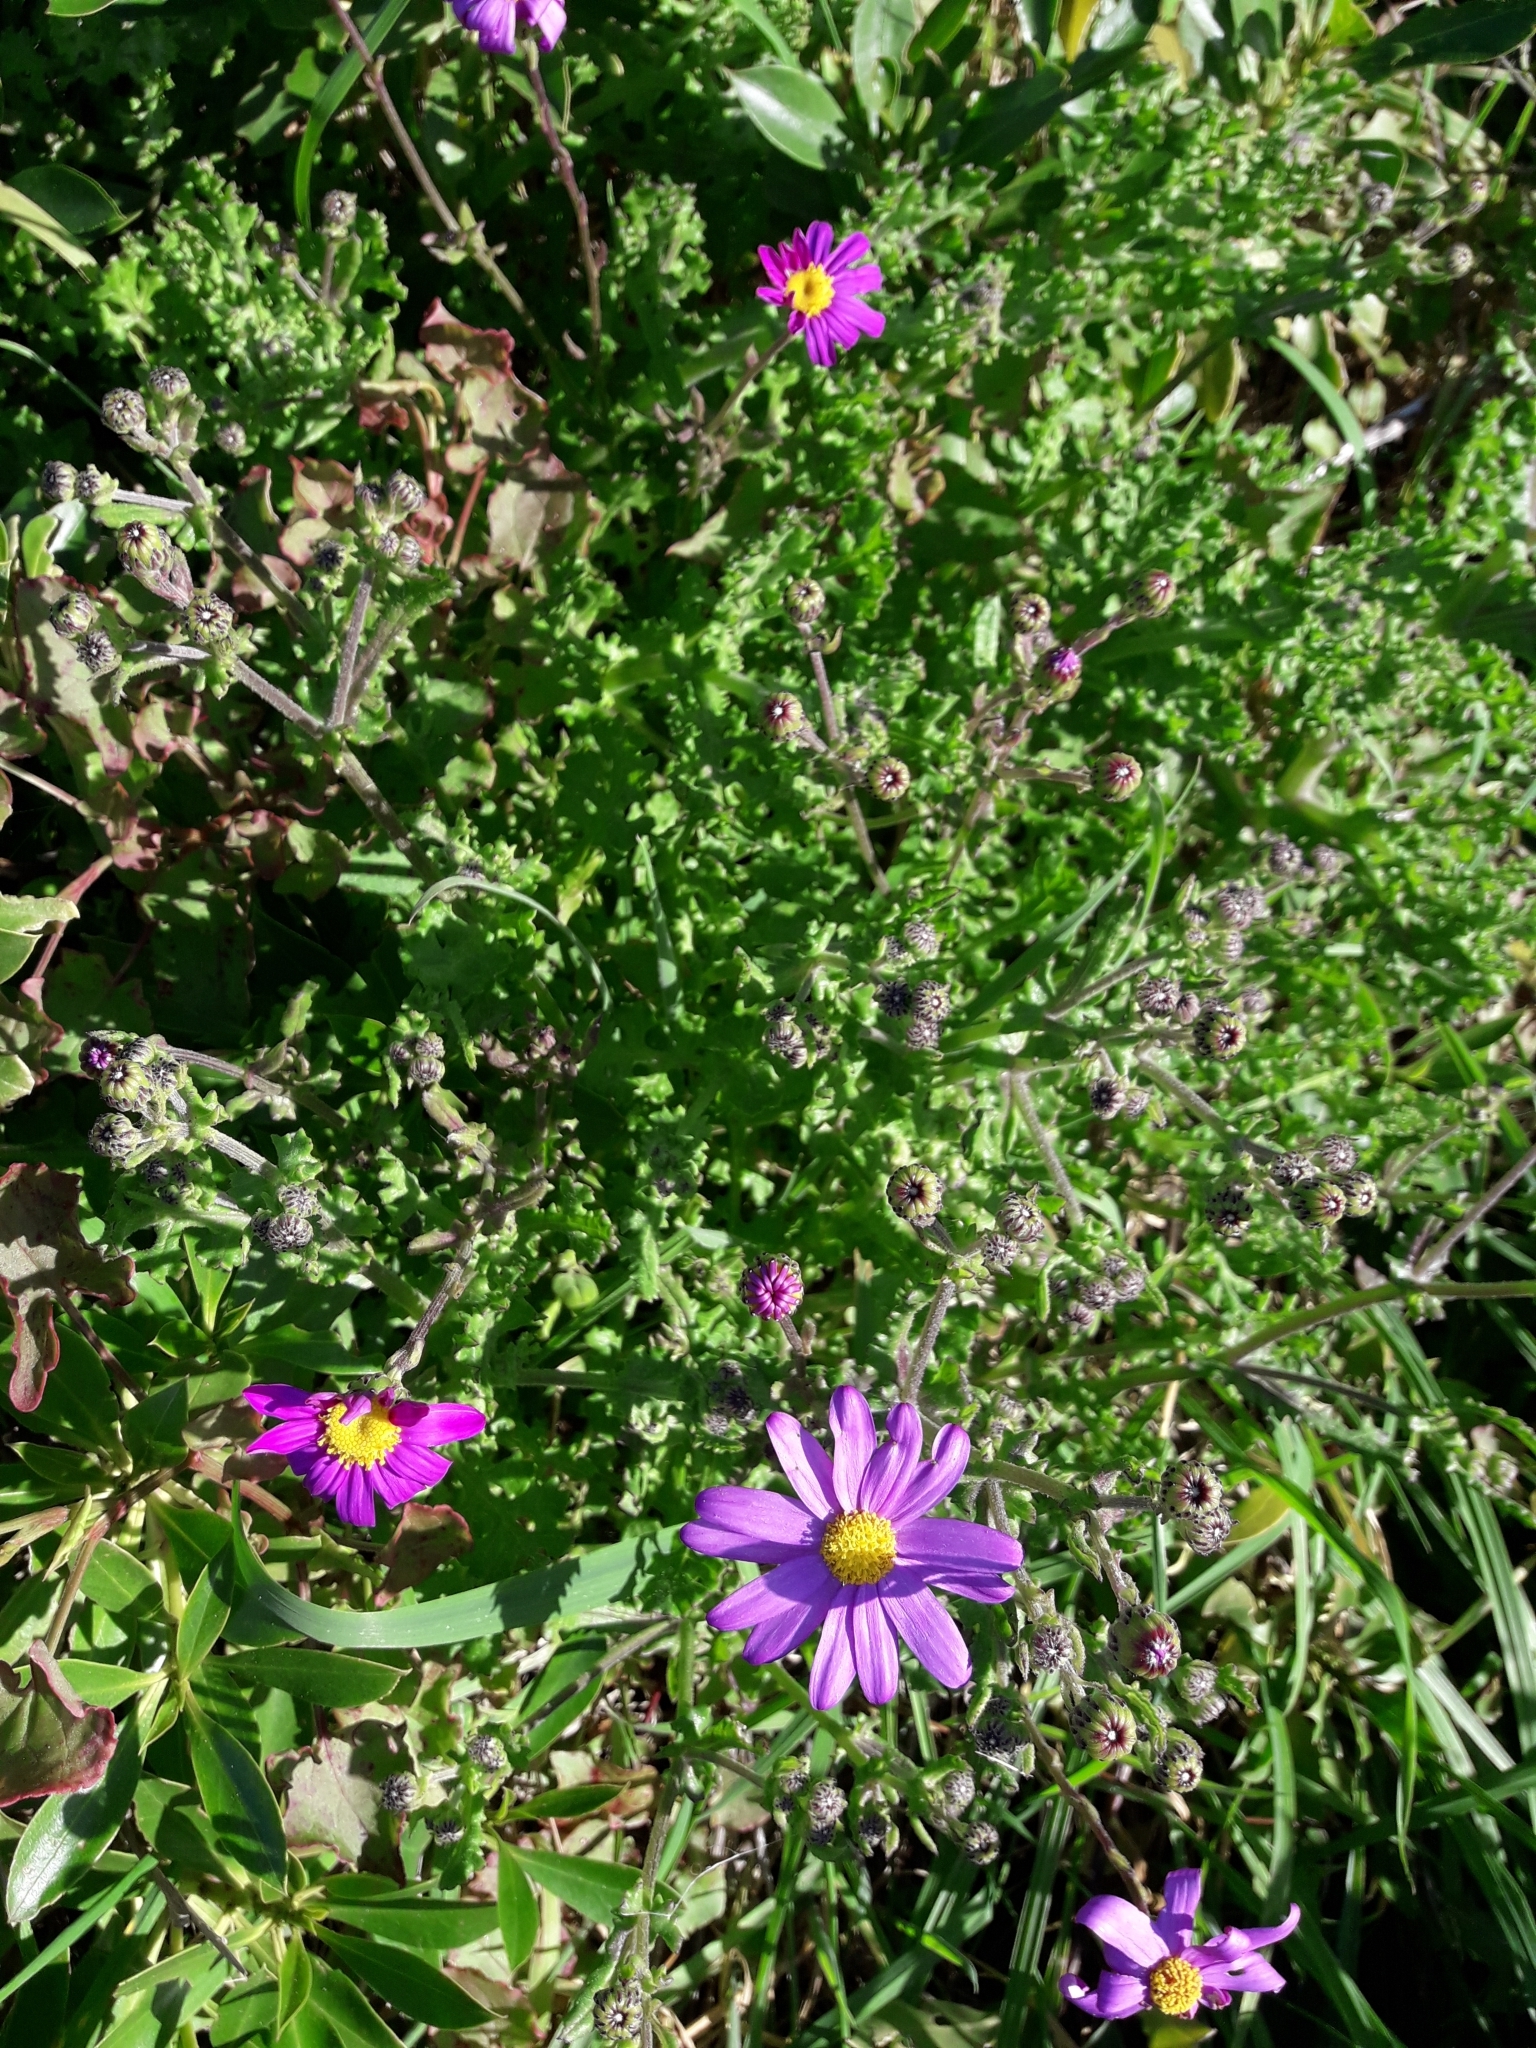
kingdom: Plantae
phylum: Tracheophyta
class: Magnoliopsida
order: Asterales
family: Asteraceae
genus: Senecio
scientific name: Senecio elegans
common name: Purple groundsel
